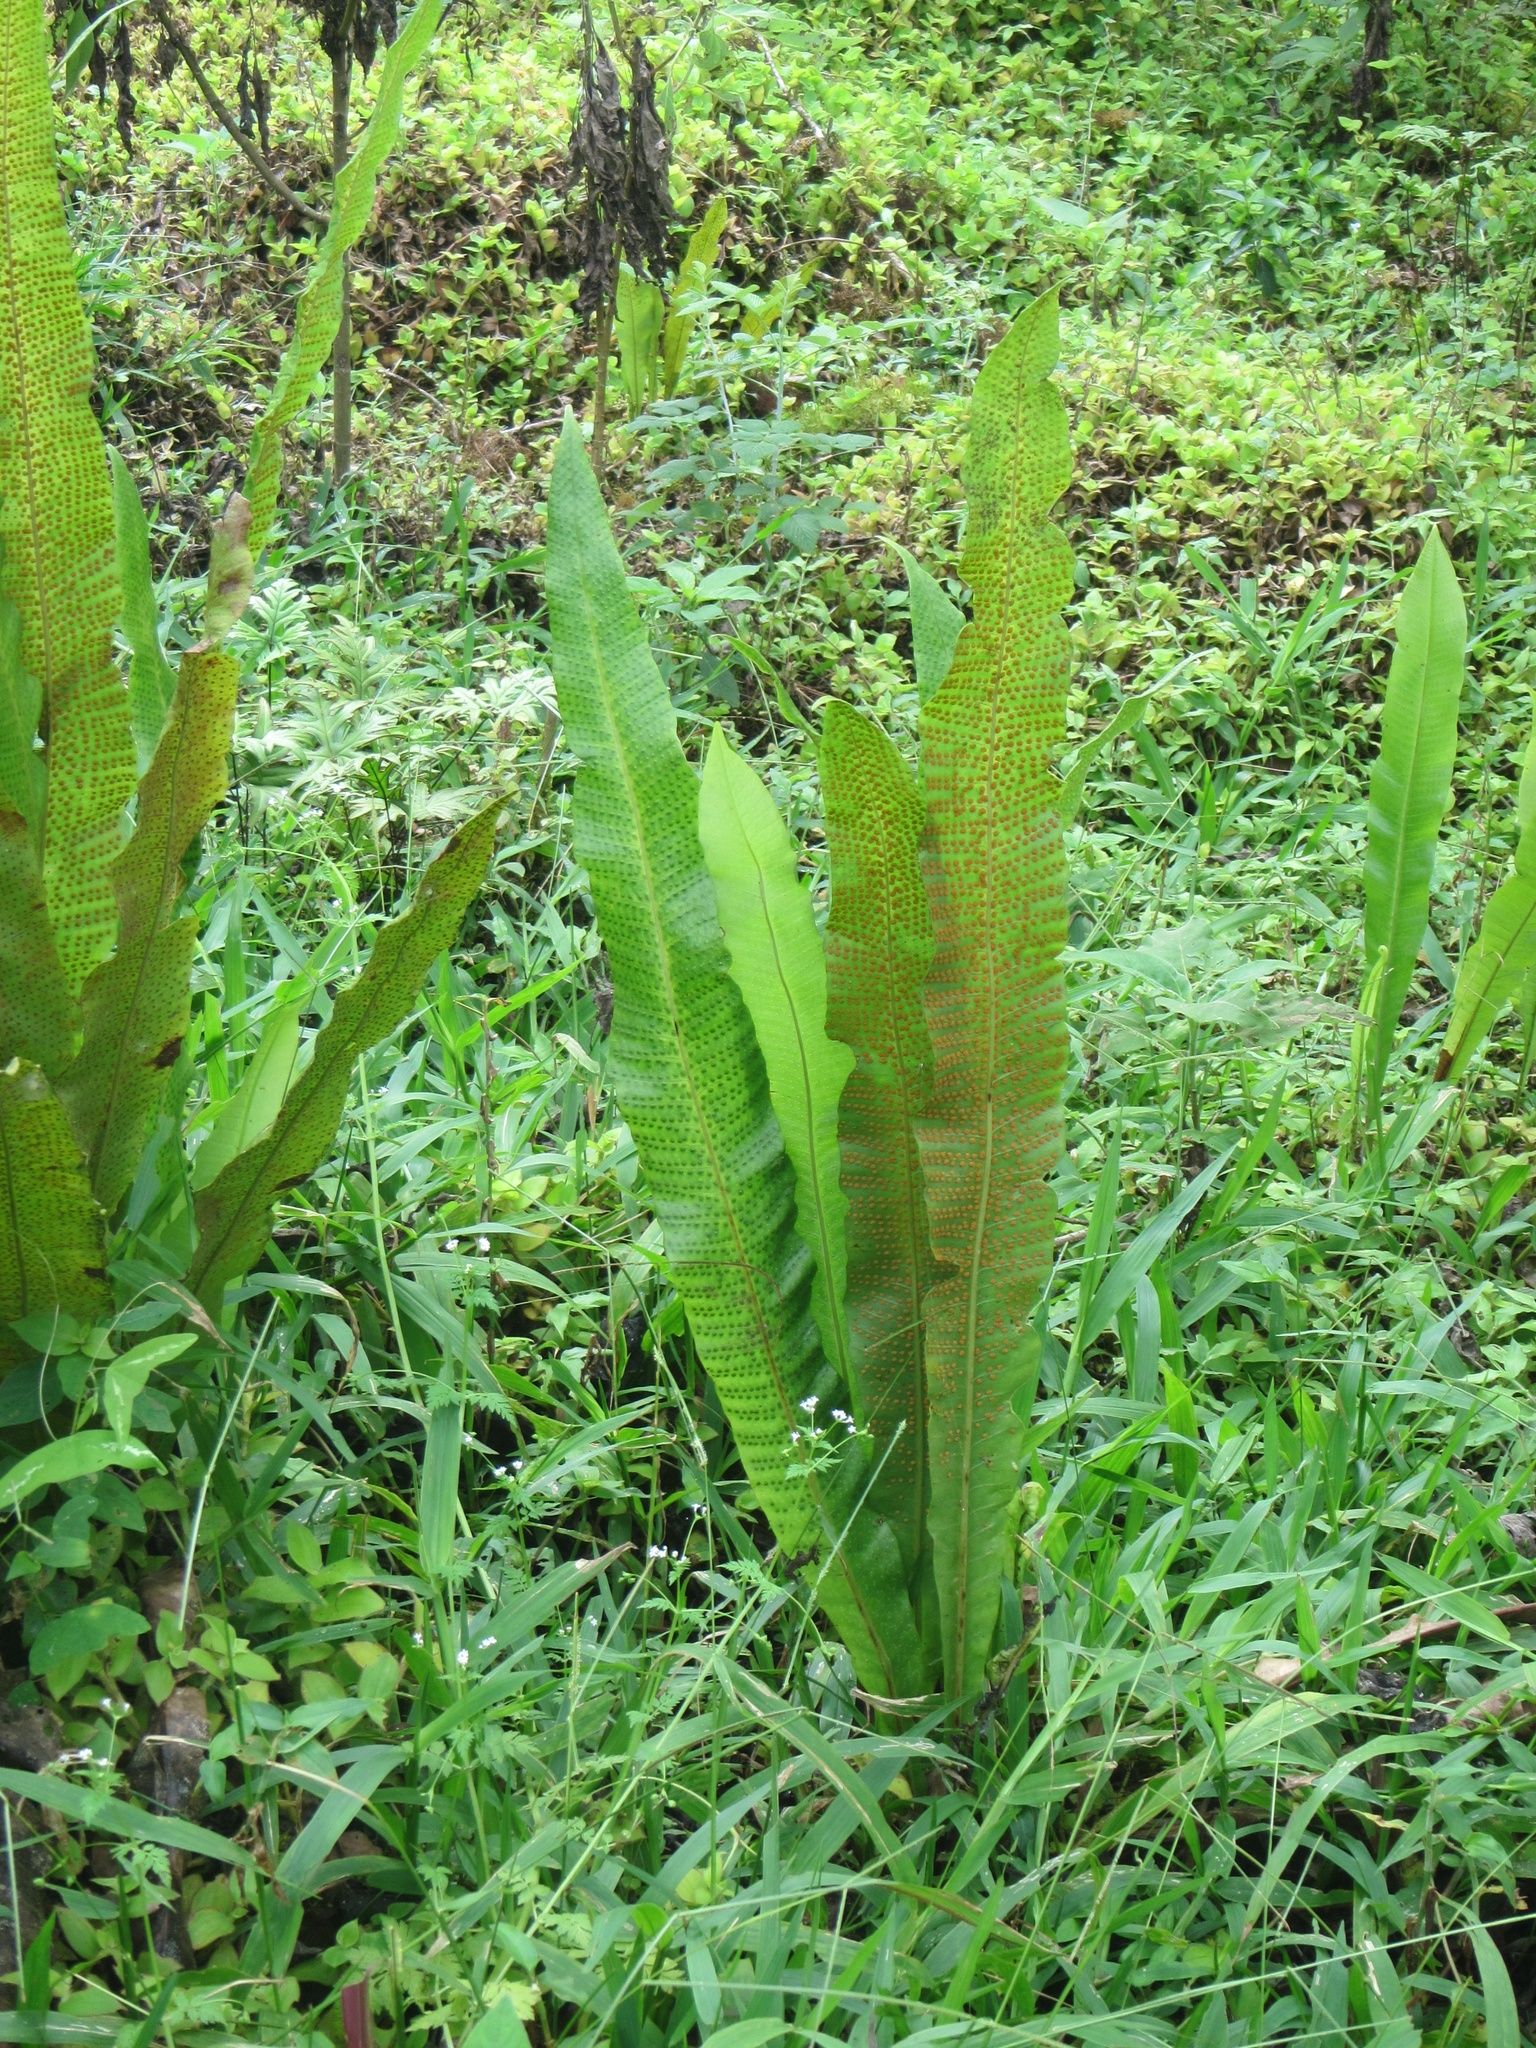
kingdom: Plantae
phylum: Tracheophyta
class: Polypodiopsida
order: Polypodiales
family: Polypodiaceae
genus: Campyloneurum
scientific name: Campyloneurum phyllitidis
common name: Cow-tongue fern
